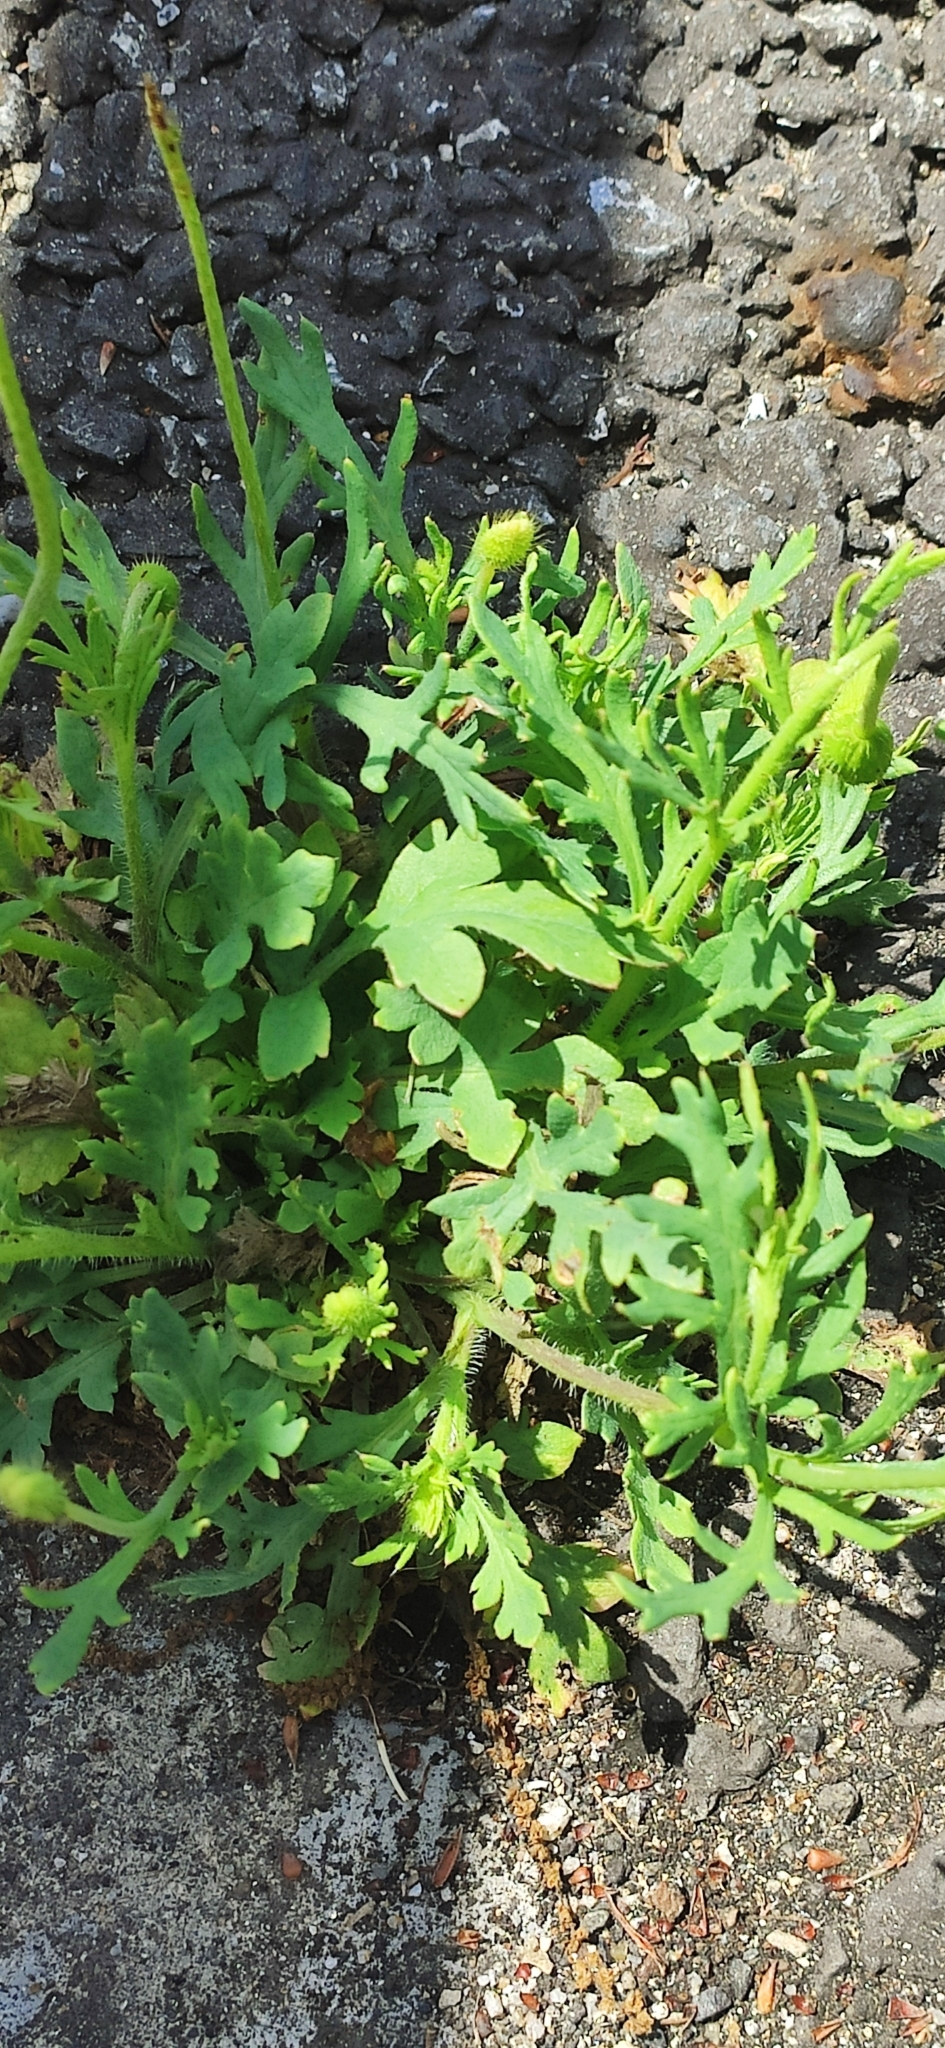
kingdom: Plantae
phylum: Tracheophyta
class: Magnoliopsida
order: Ranunculales
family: Papaveraceae
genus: Papaver
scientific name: Papaver dubium
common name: Long-headed poppy
